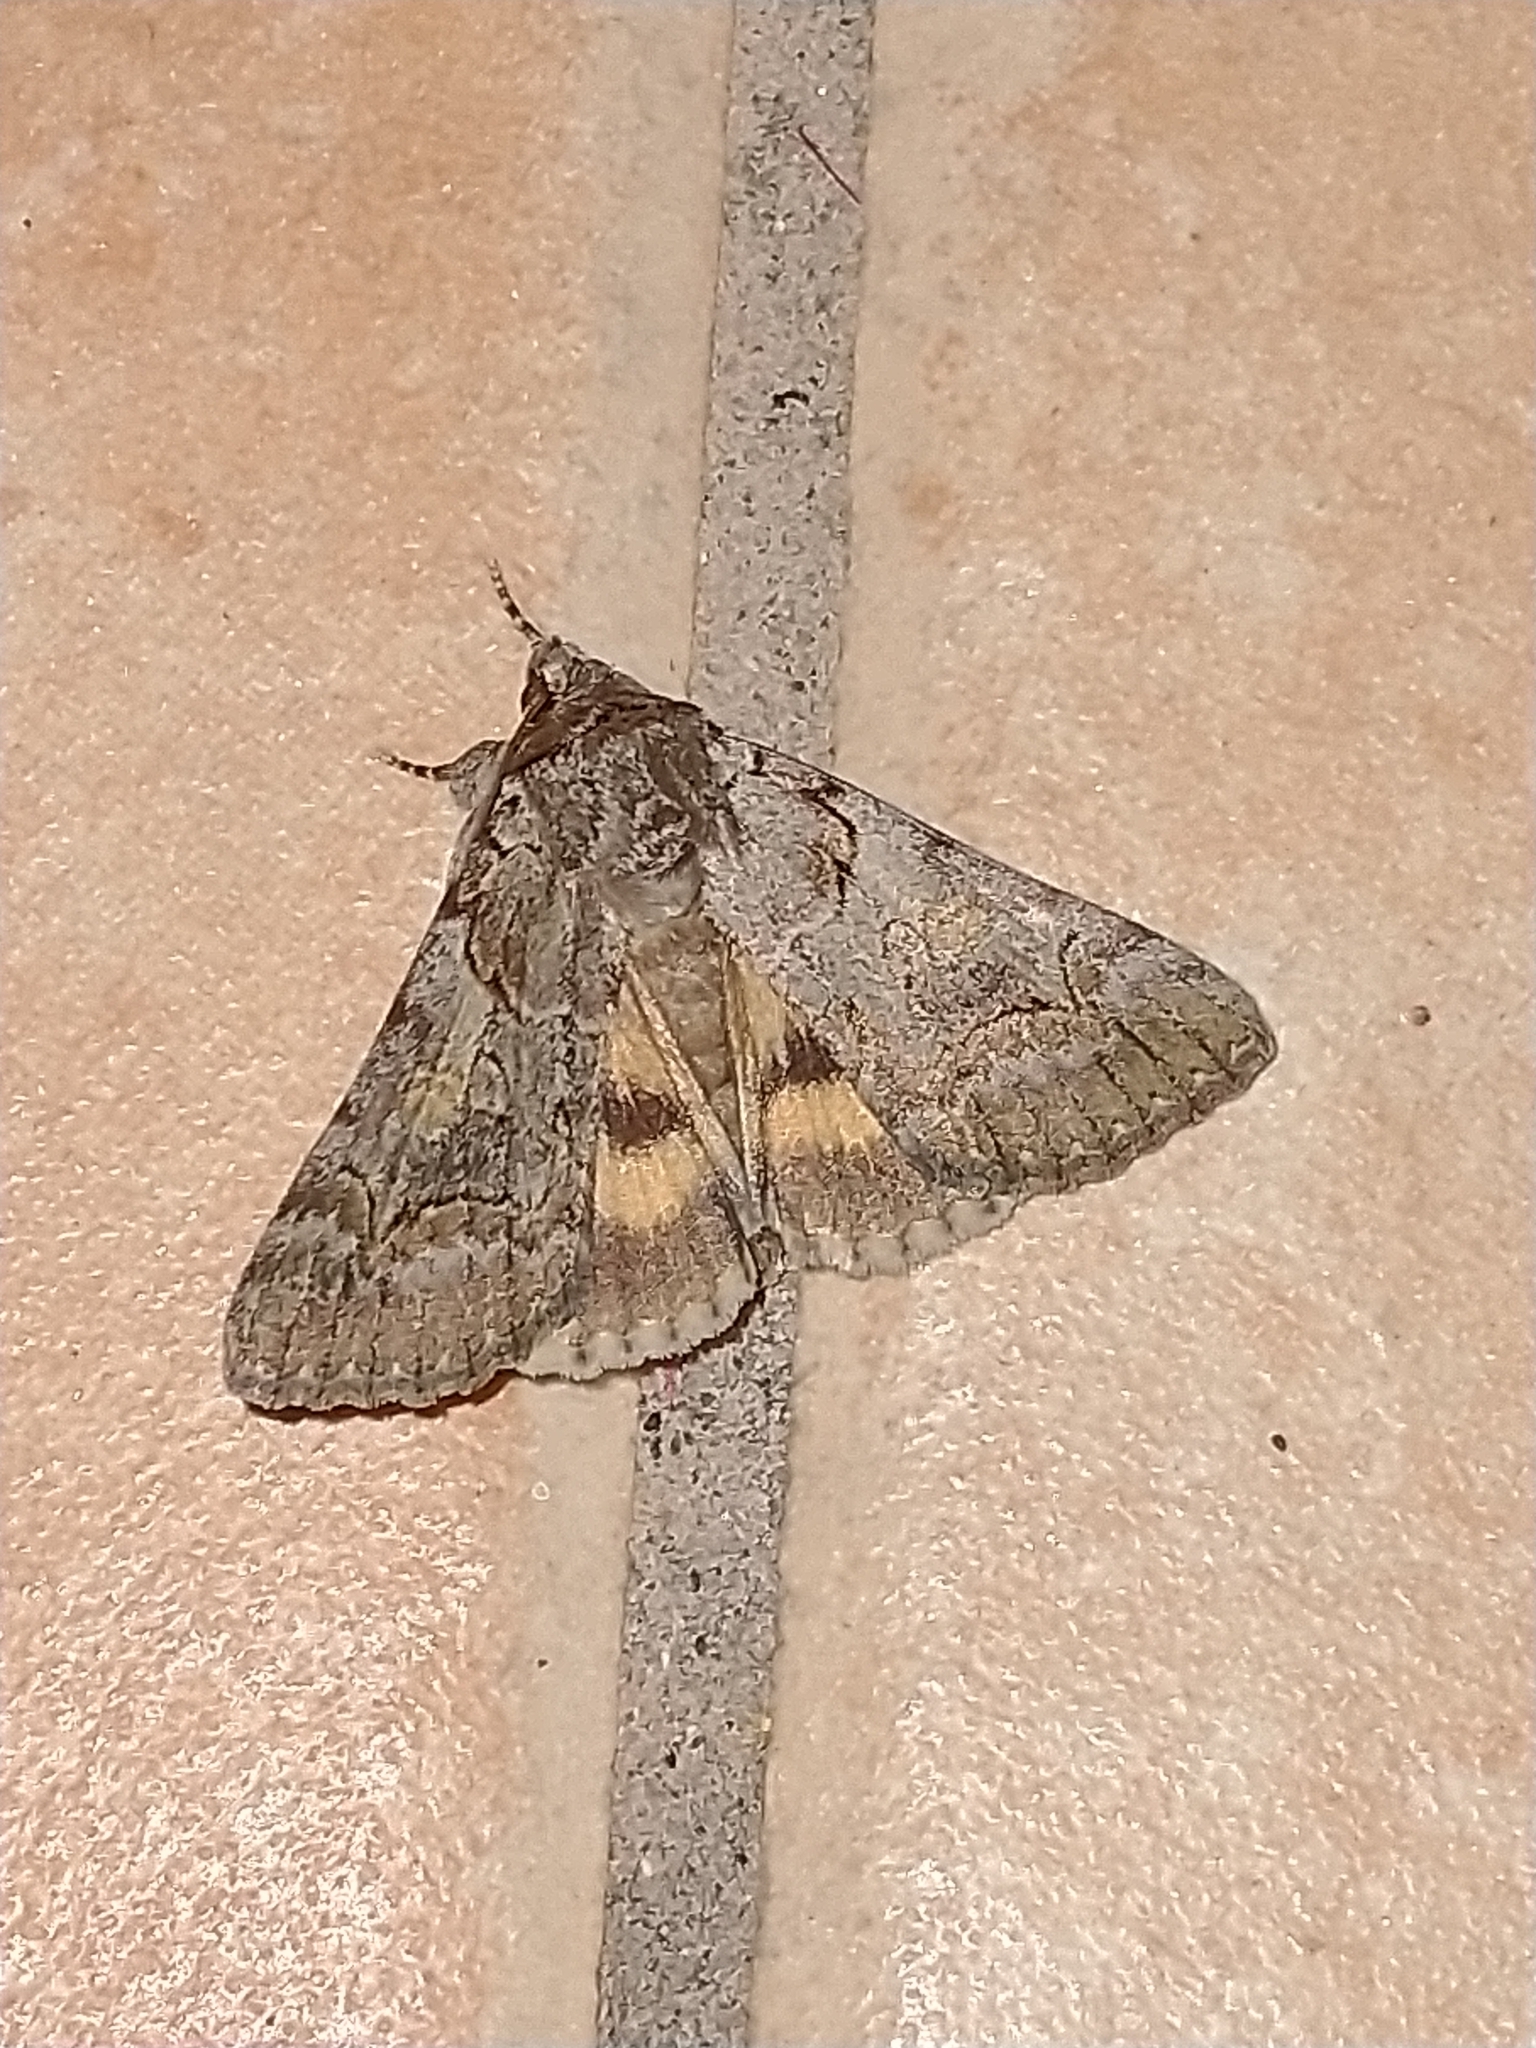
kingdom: Animalia
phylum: Arthropoda
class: Insecta
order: Lepidoptera
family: Erebidae
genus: Catocala
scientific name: Catocala eutychea
